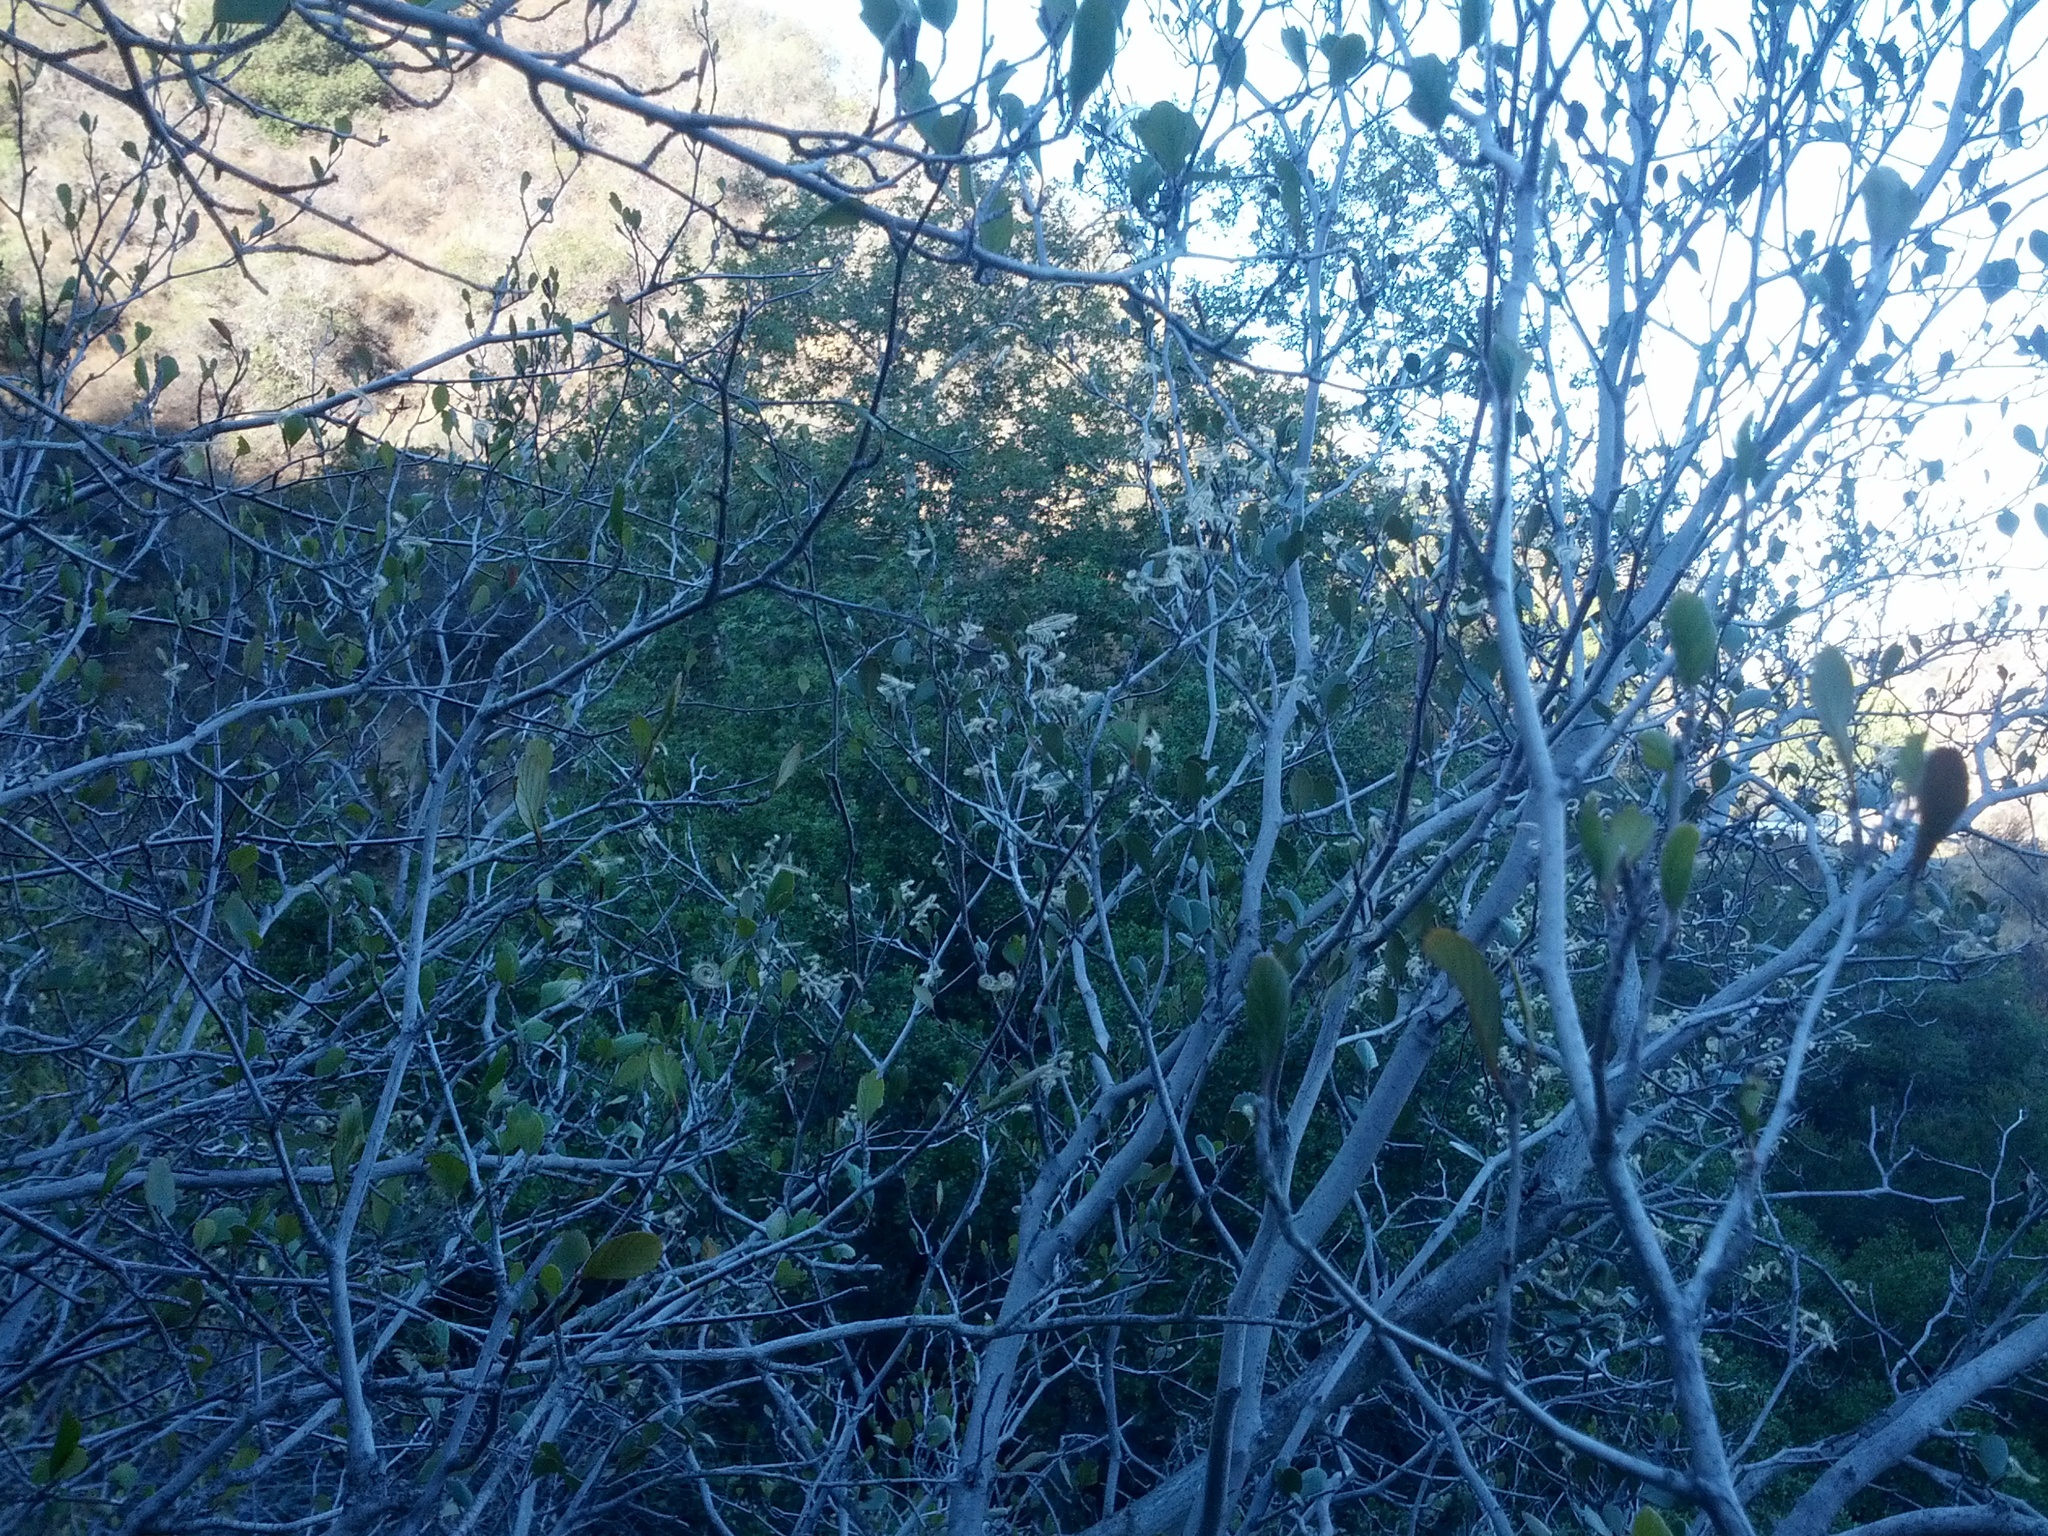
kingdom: Plantae
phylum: Tracheophyta
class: Magnoliopsida
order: Rosales
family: Rosaceae
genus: Cercocarpus
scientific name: Cercocarpus betuloides
